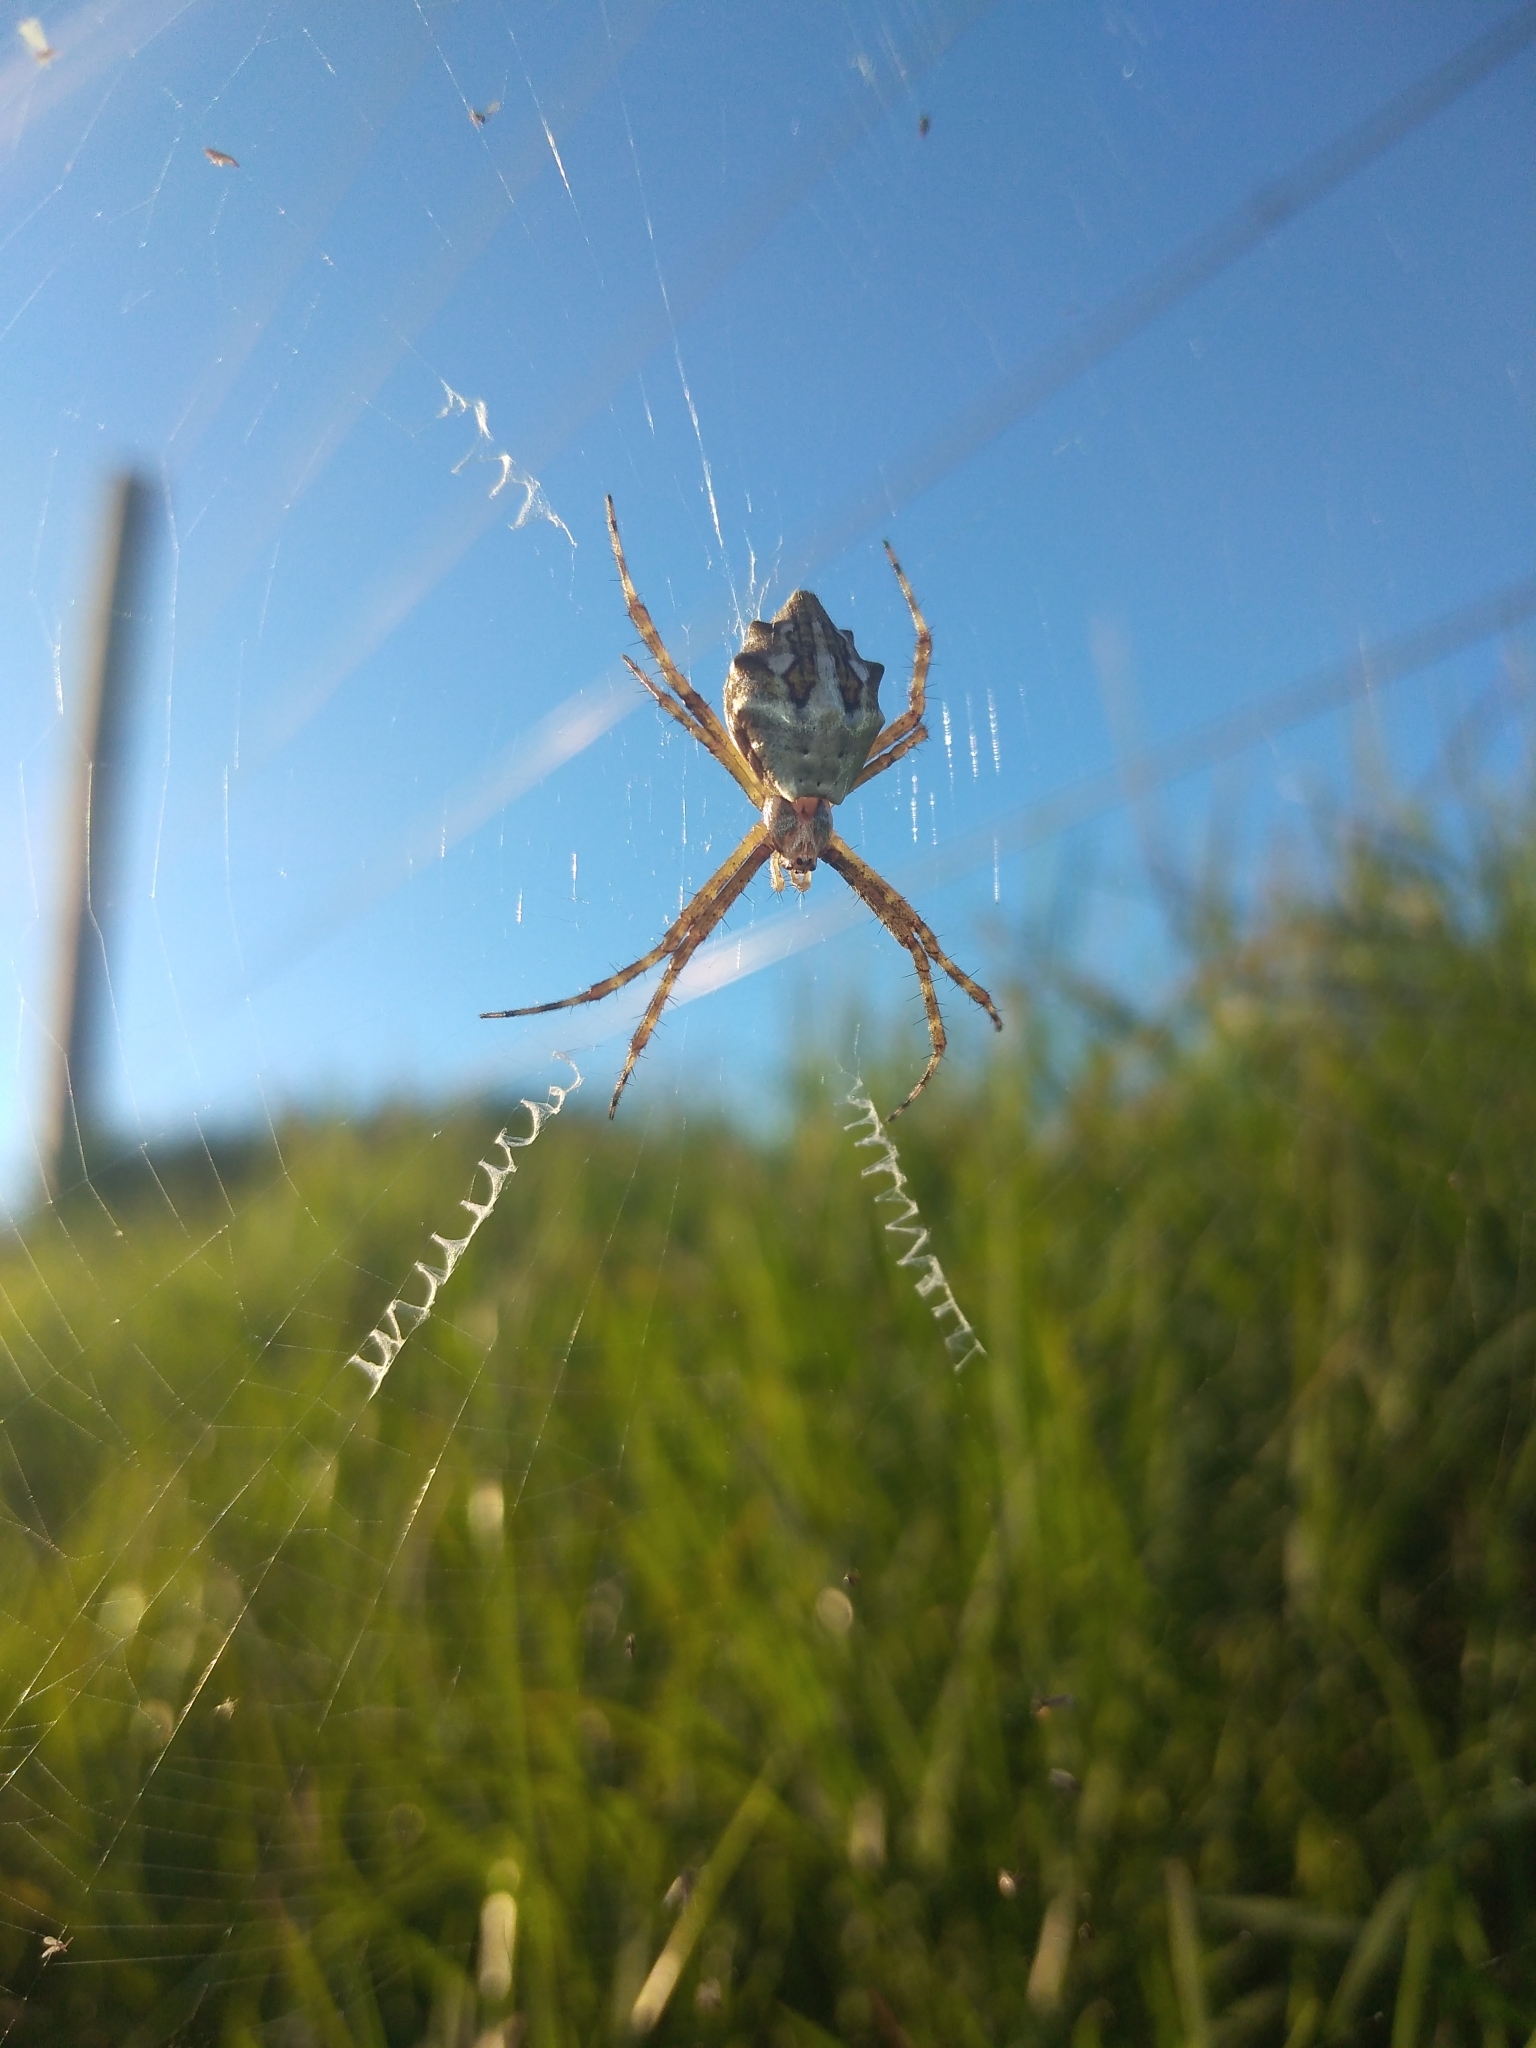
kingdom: Animalia
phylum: Arthropoda
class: Arachnida
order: Araneae
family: Araneidae
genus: Argiope
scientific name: Argiope argentata
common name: Orb weavers
